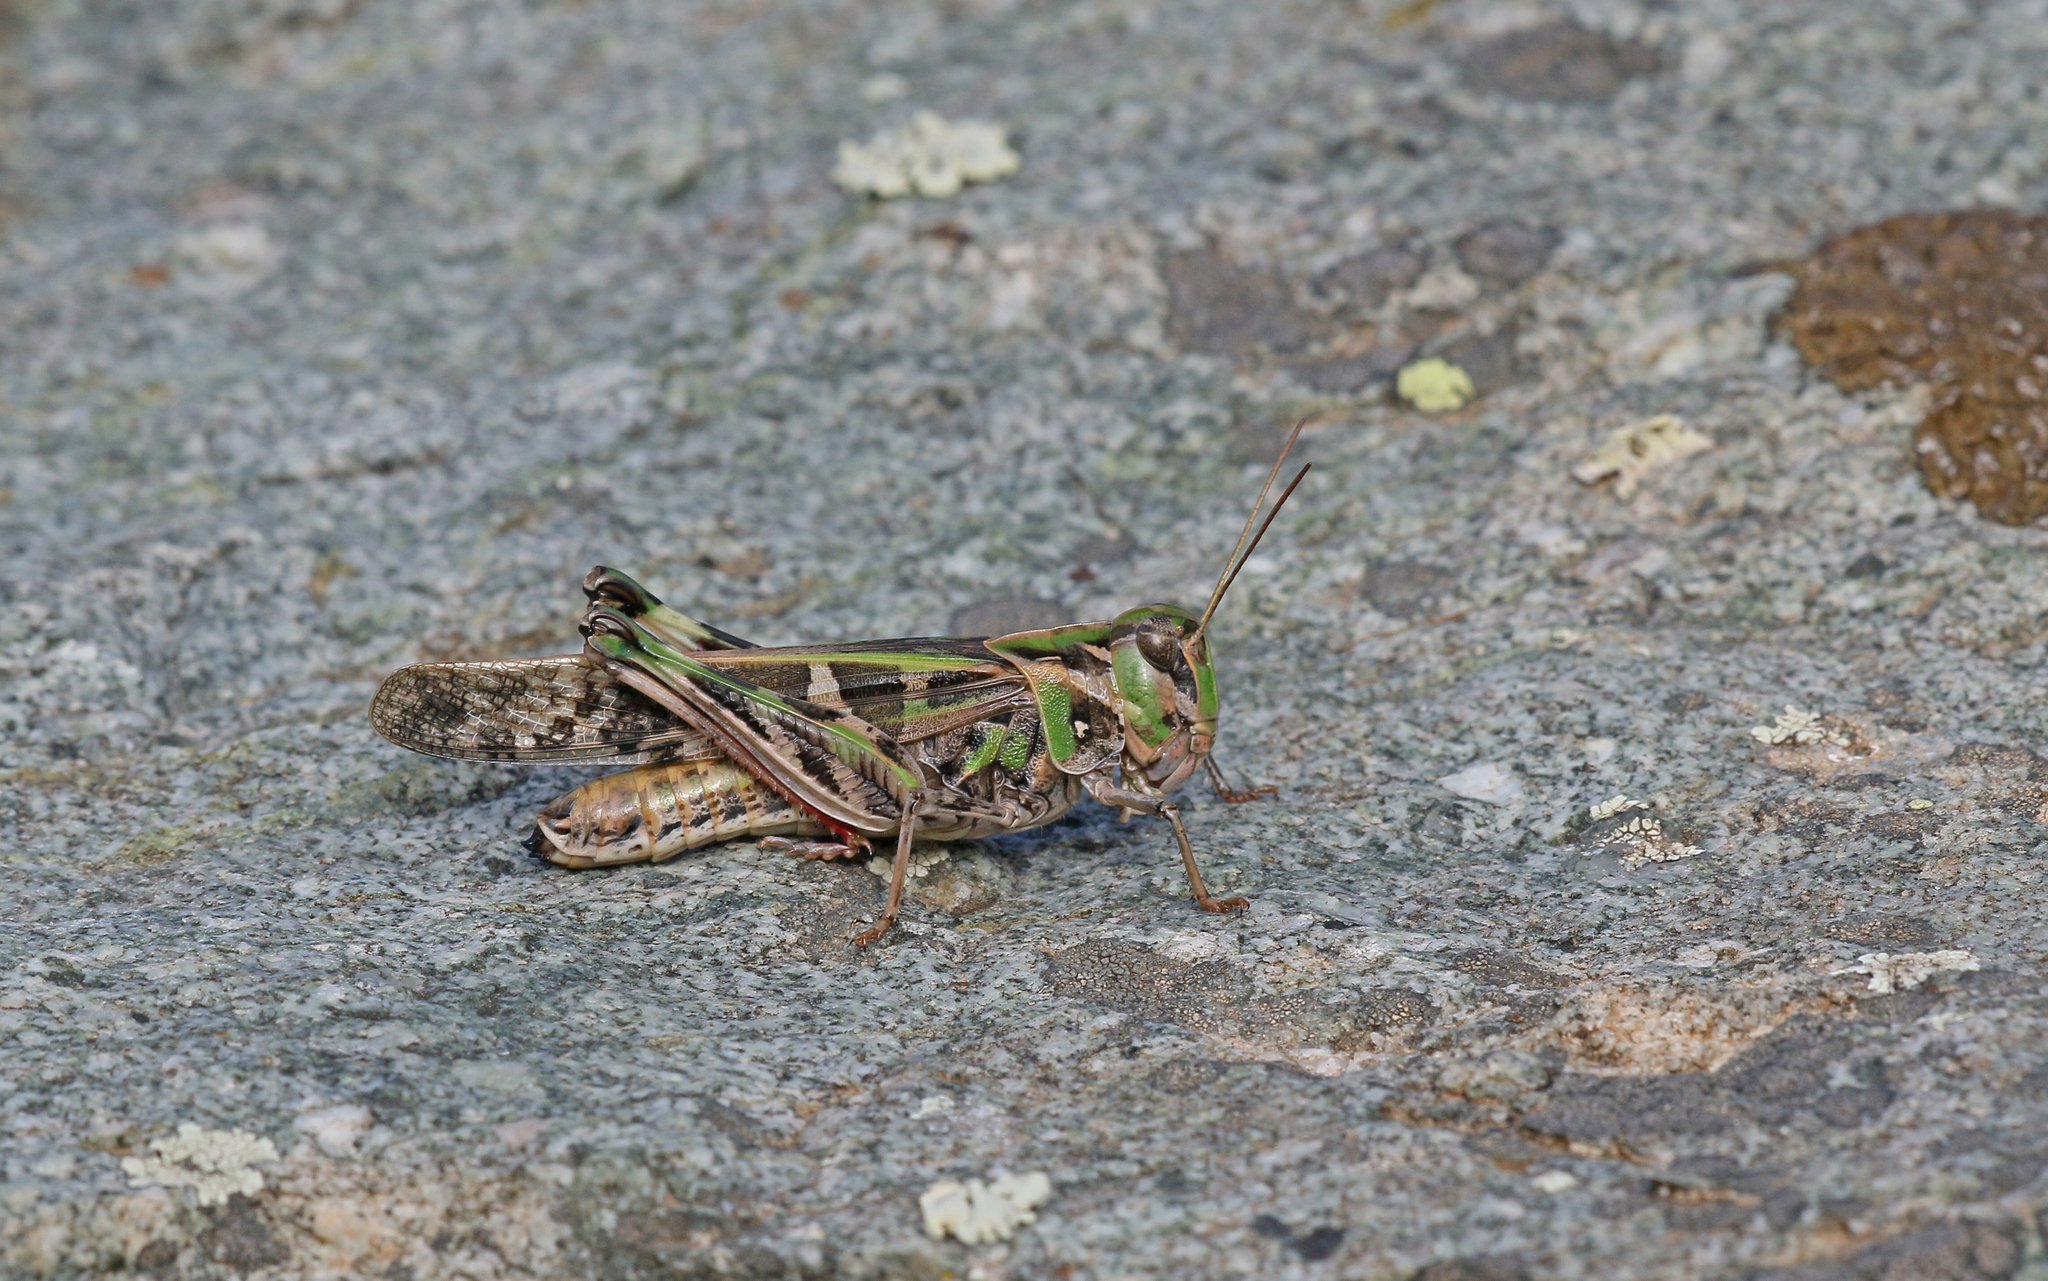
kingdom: Animalia
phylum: Arthropoda
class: Insecta
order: Orthoptera
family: Acrididae
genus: Oedaleus
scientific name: Oedaleus decorus
